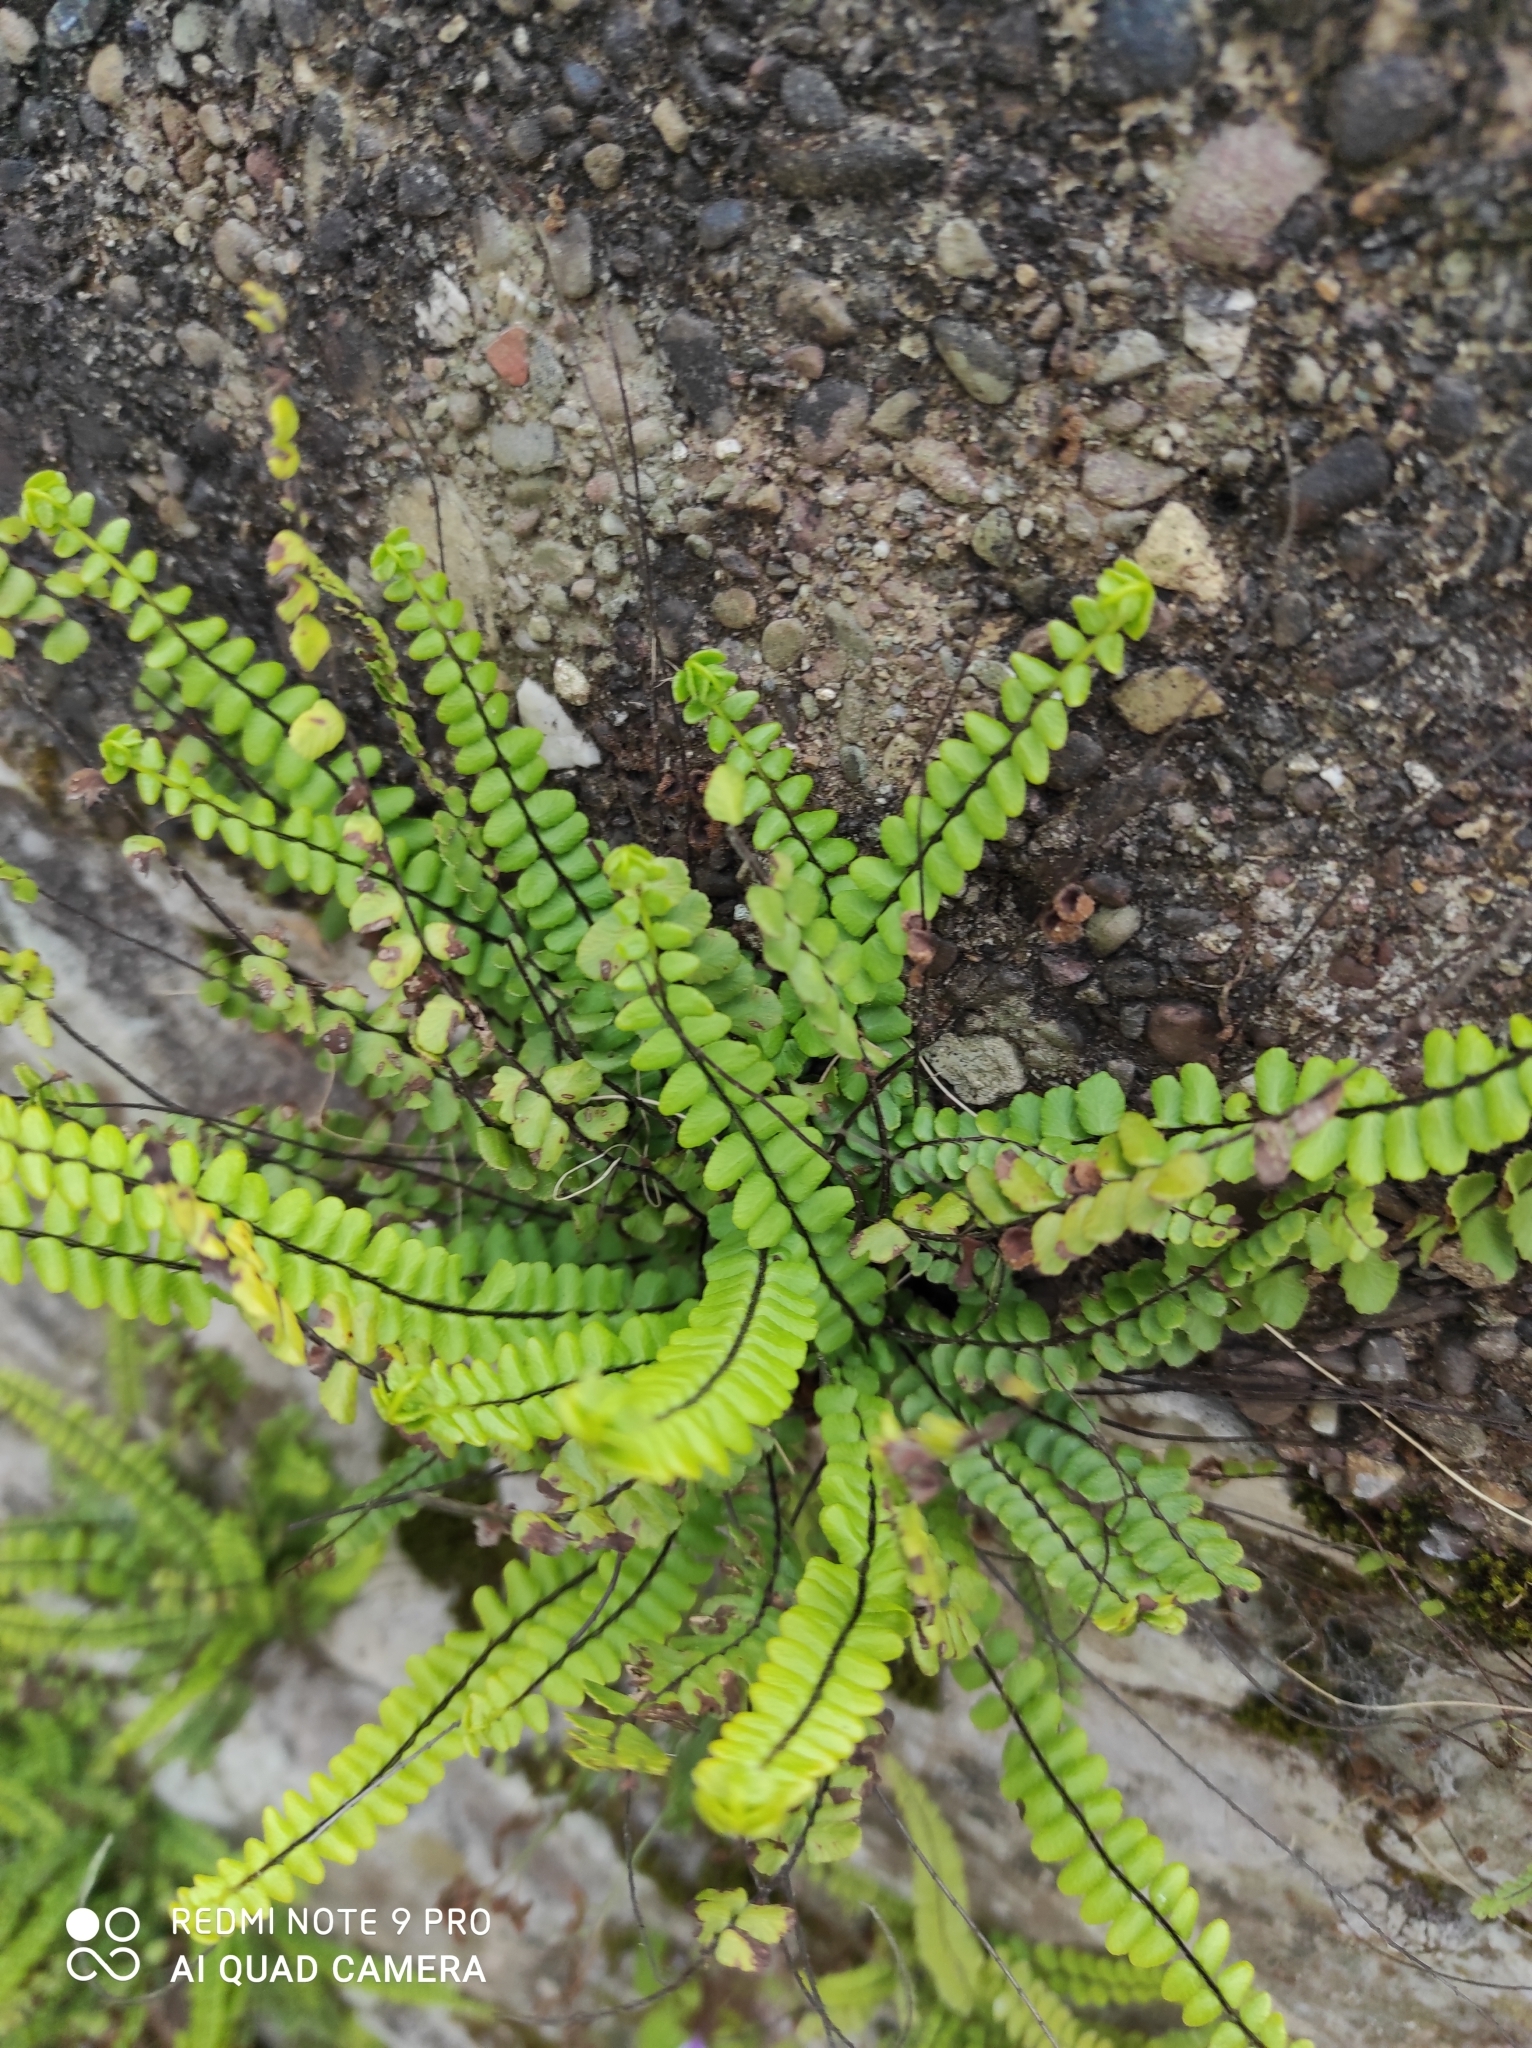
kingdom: Plantae
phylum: Tracheophyta
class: Polypodiopsida
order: Polypodiales
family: Aspleniaceae
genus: Asplenium
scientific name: Asplenium trichomanes
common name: Maidenhair spleenwort
